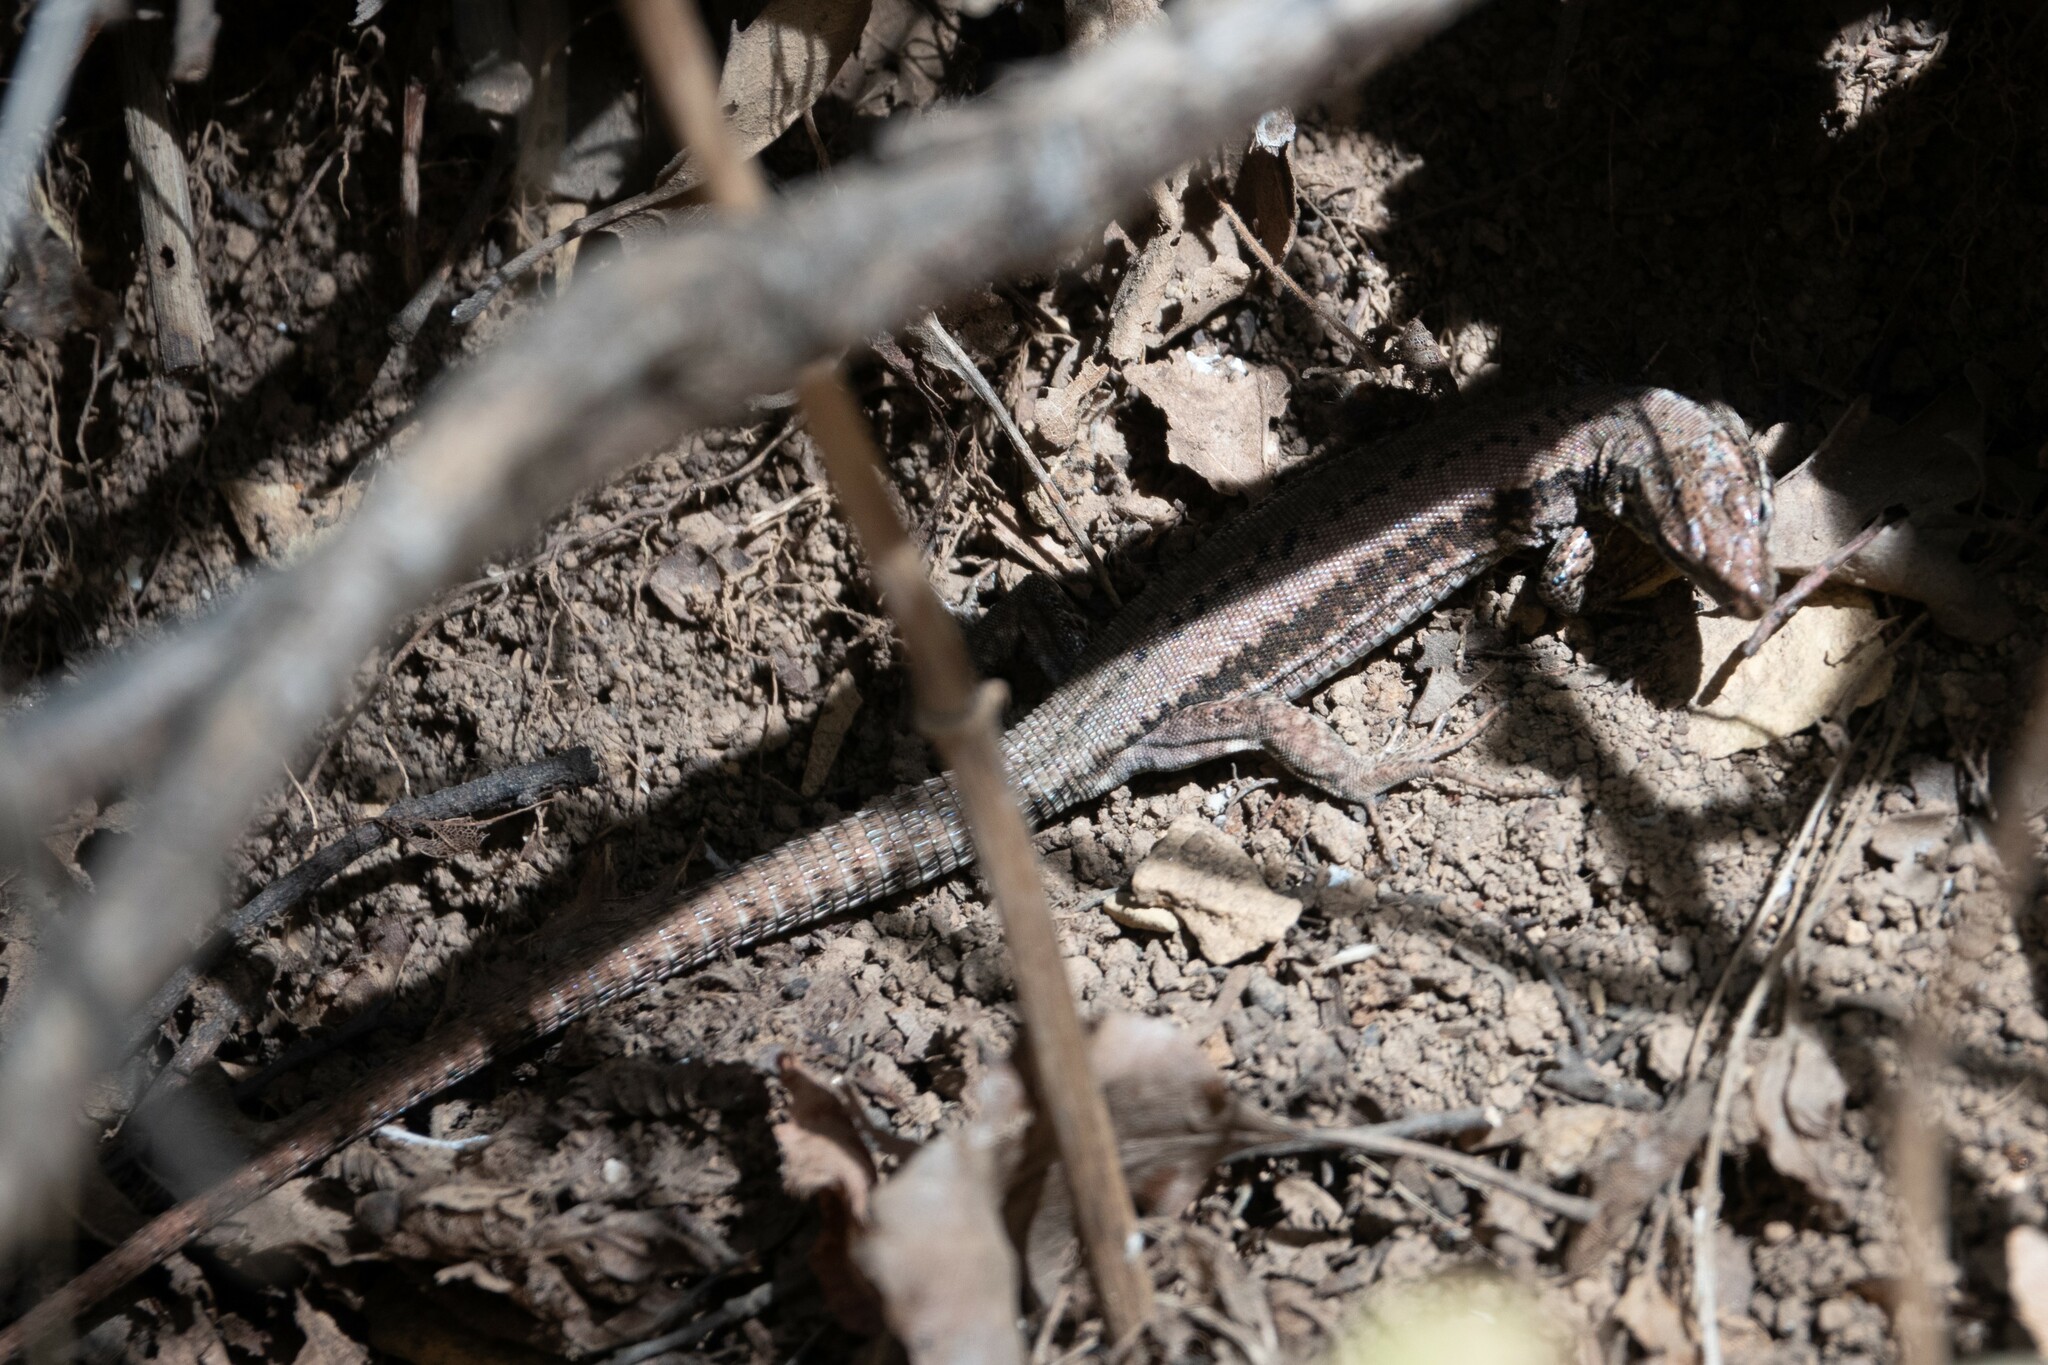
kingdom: Animalia
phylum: Chordata
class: Squamata
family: Lacertidae
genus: Podarcis
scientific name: Podarcis muralis
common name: Common wall lizard
